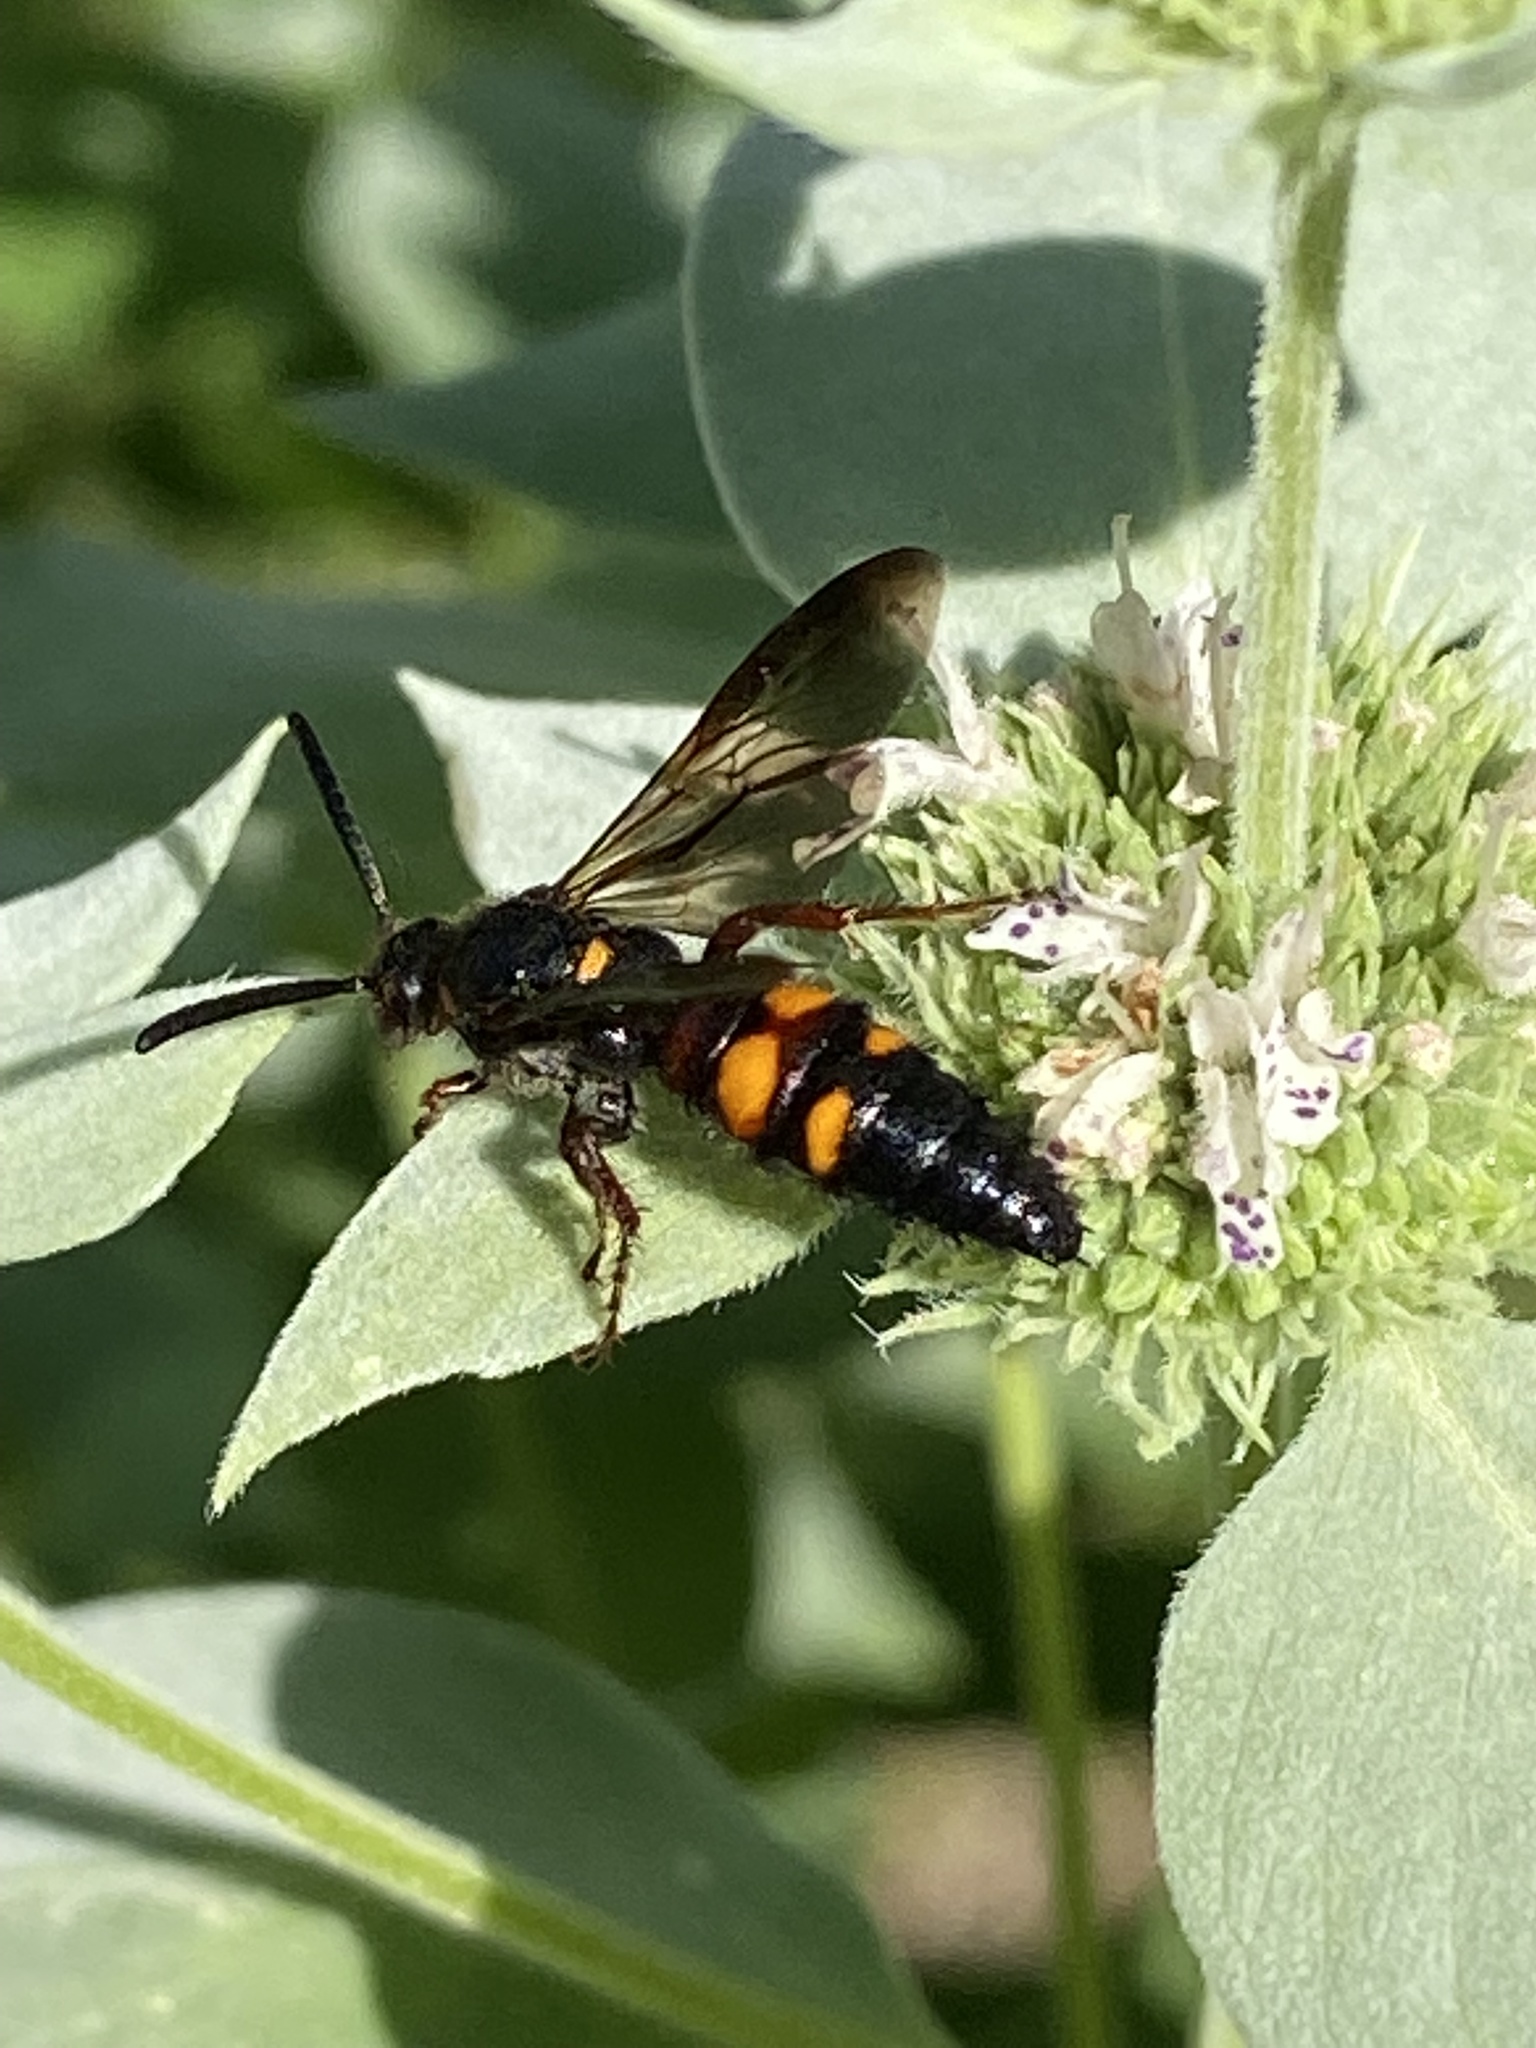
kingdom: Animalia
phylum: Arthropoda
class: Insecta
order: Hymenoptera
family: Scoliidae
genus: Scolia
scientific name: Scolia nobilitata
